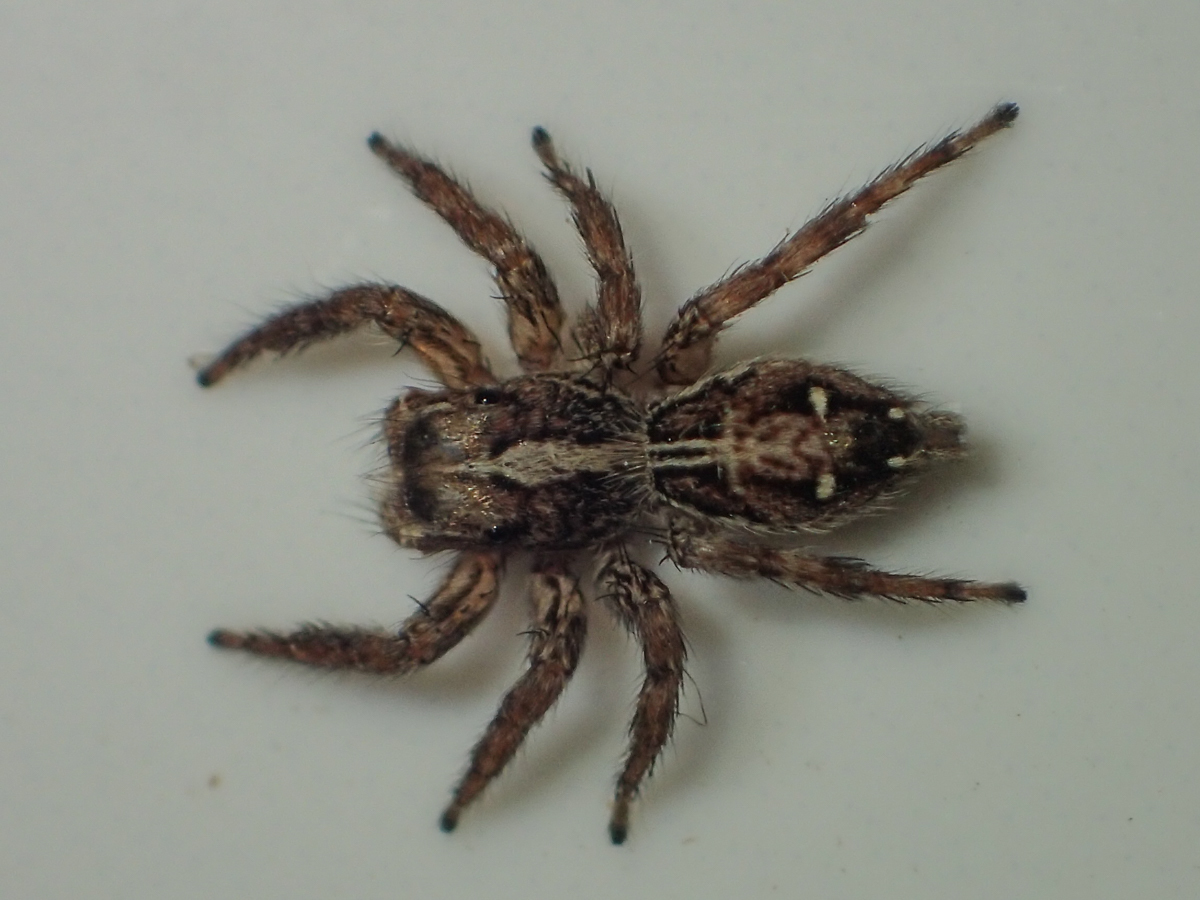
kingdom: Animalia
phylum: Arthropoda
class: Arachnida
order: Araneae
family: Salticidae
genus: Plexippus
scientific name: Plexippus paykulli
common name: Pantropical jumper
